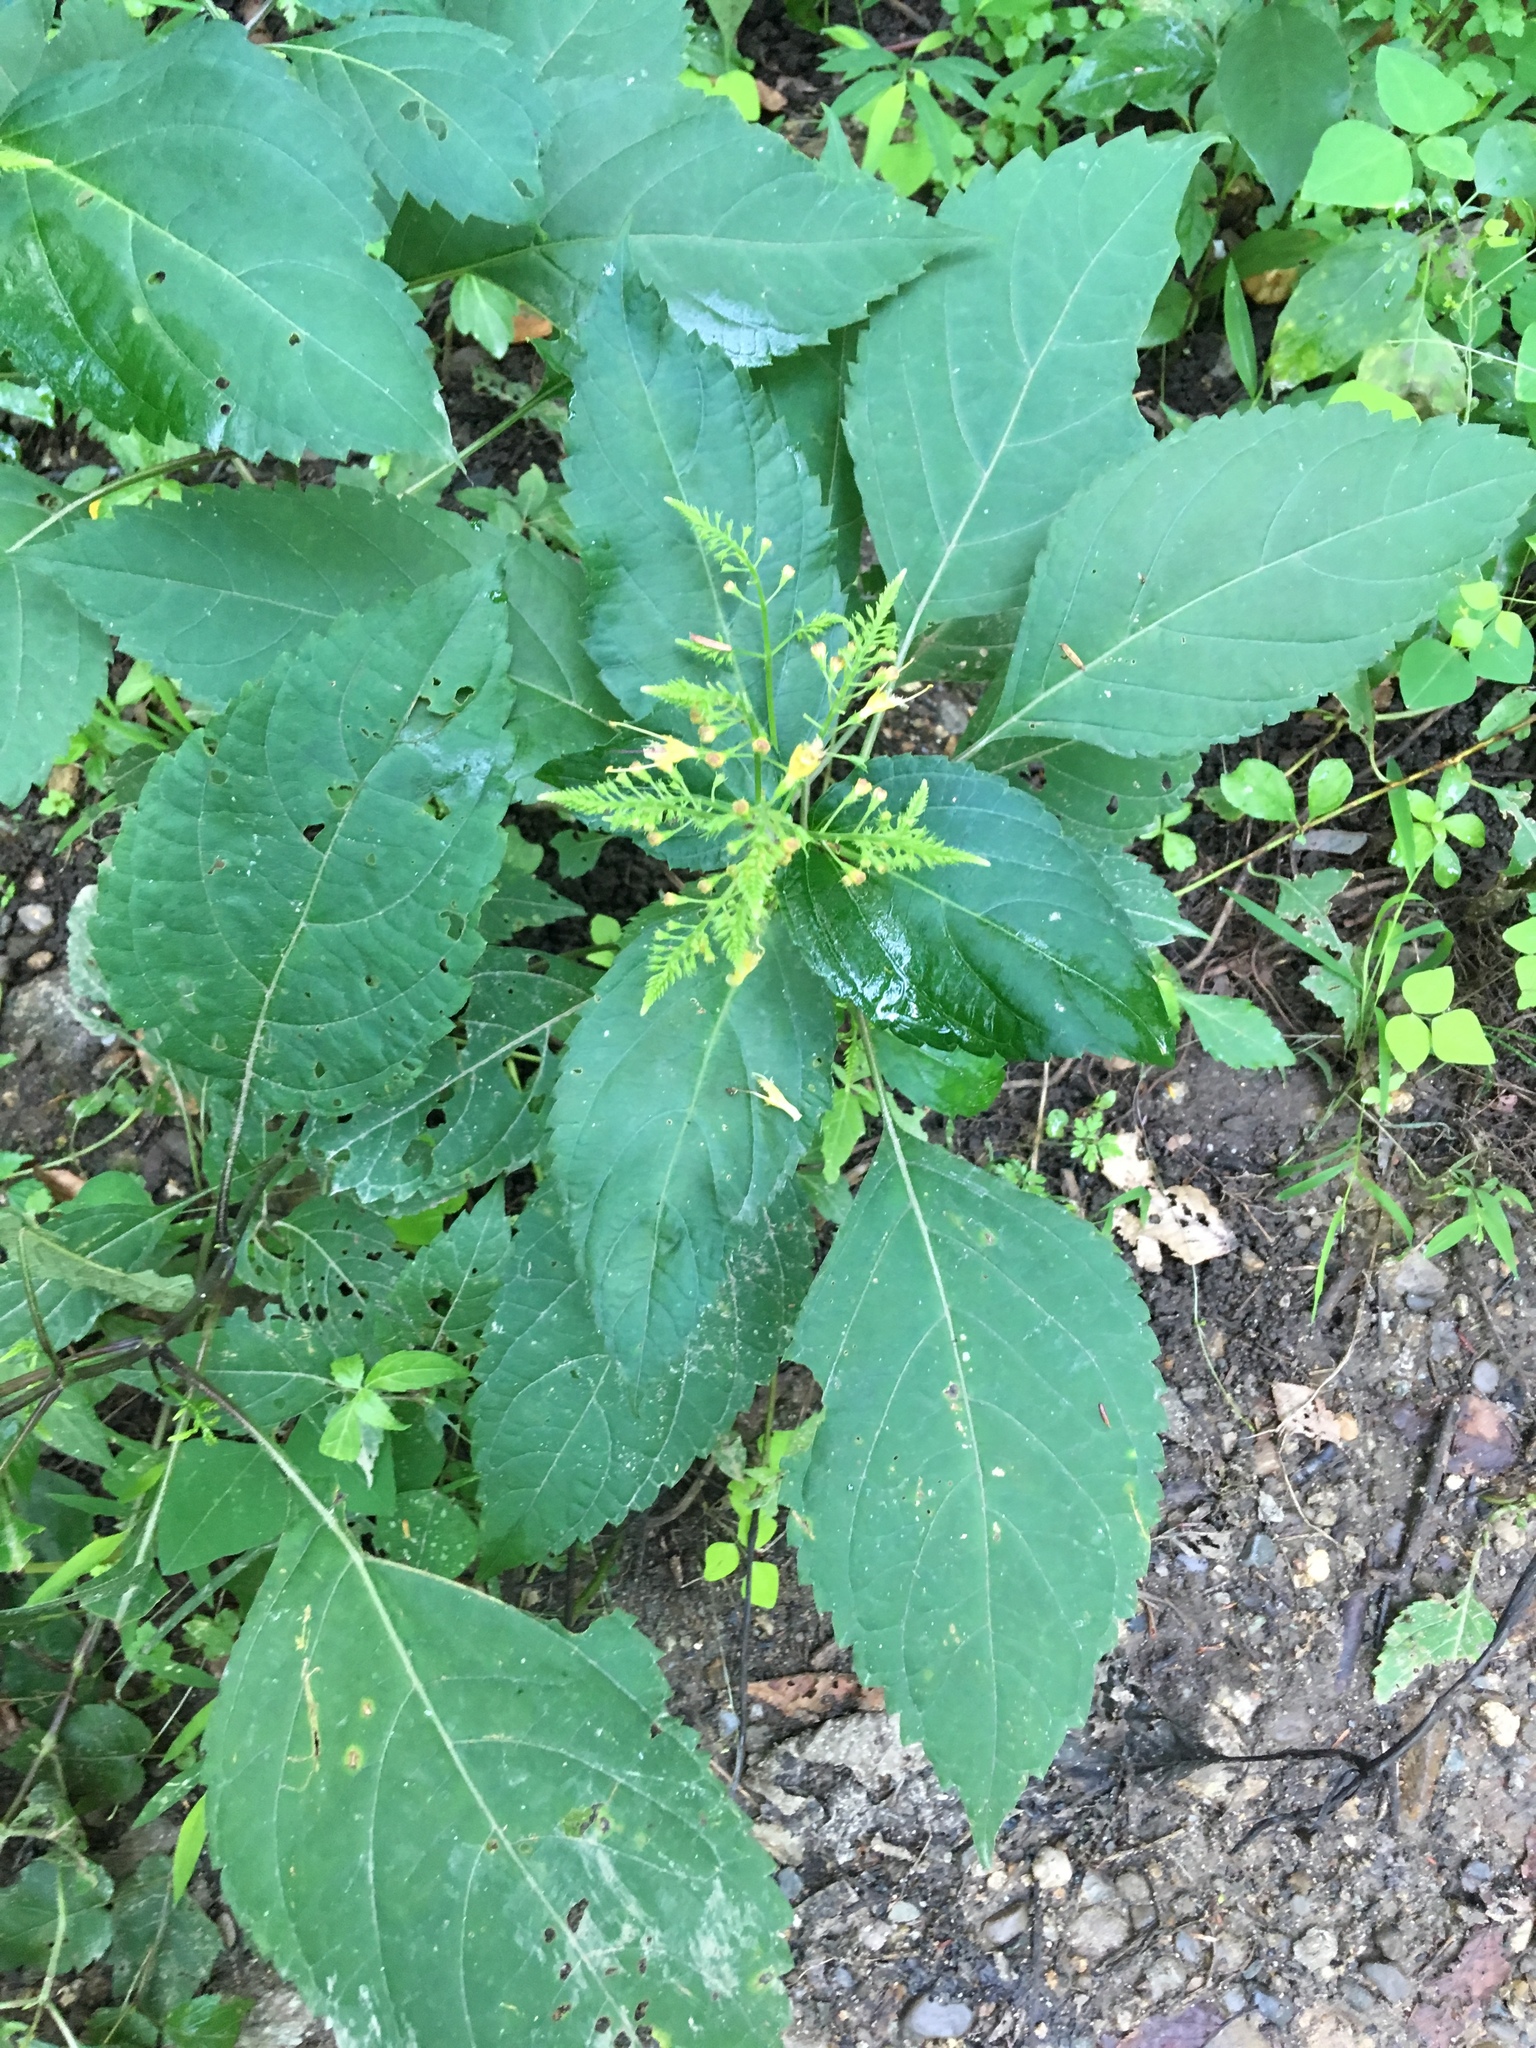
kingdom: Plantae
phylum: Tracheophyta
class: Magnoliopsida
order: Lamiales
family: Lamiaceae
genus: Collinsonia
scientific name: Collinsonia canadensis
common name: Northern horsebalm
